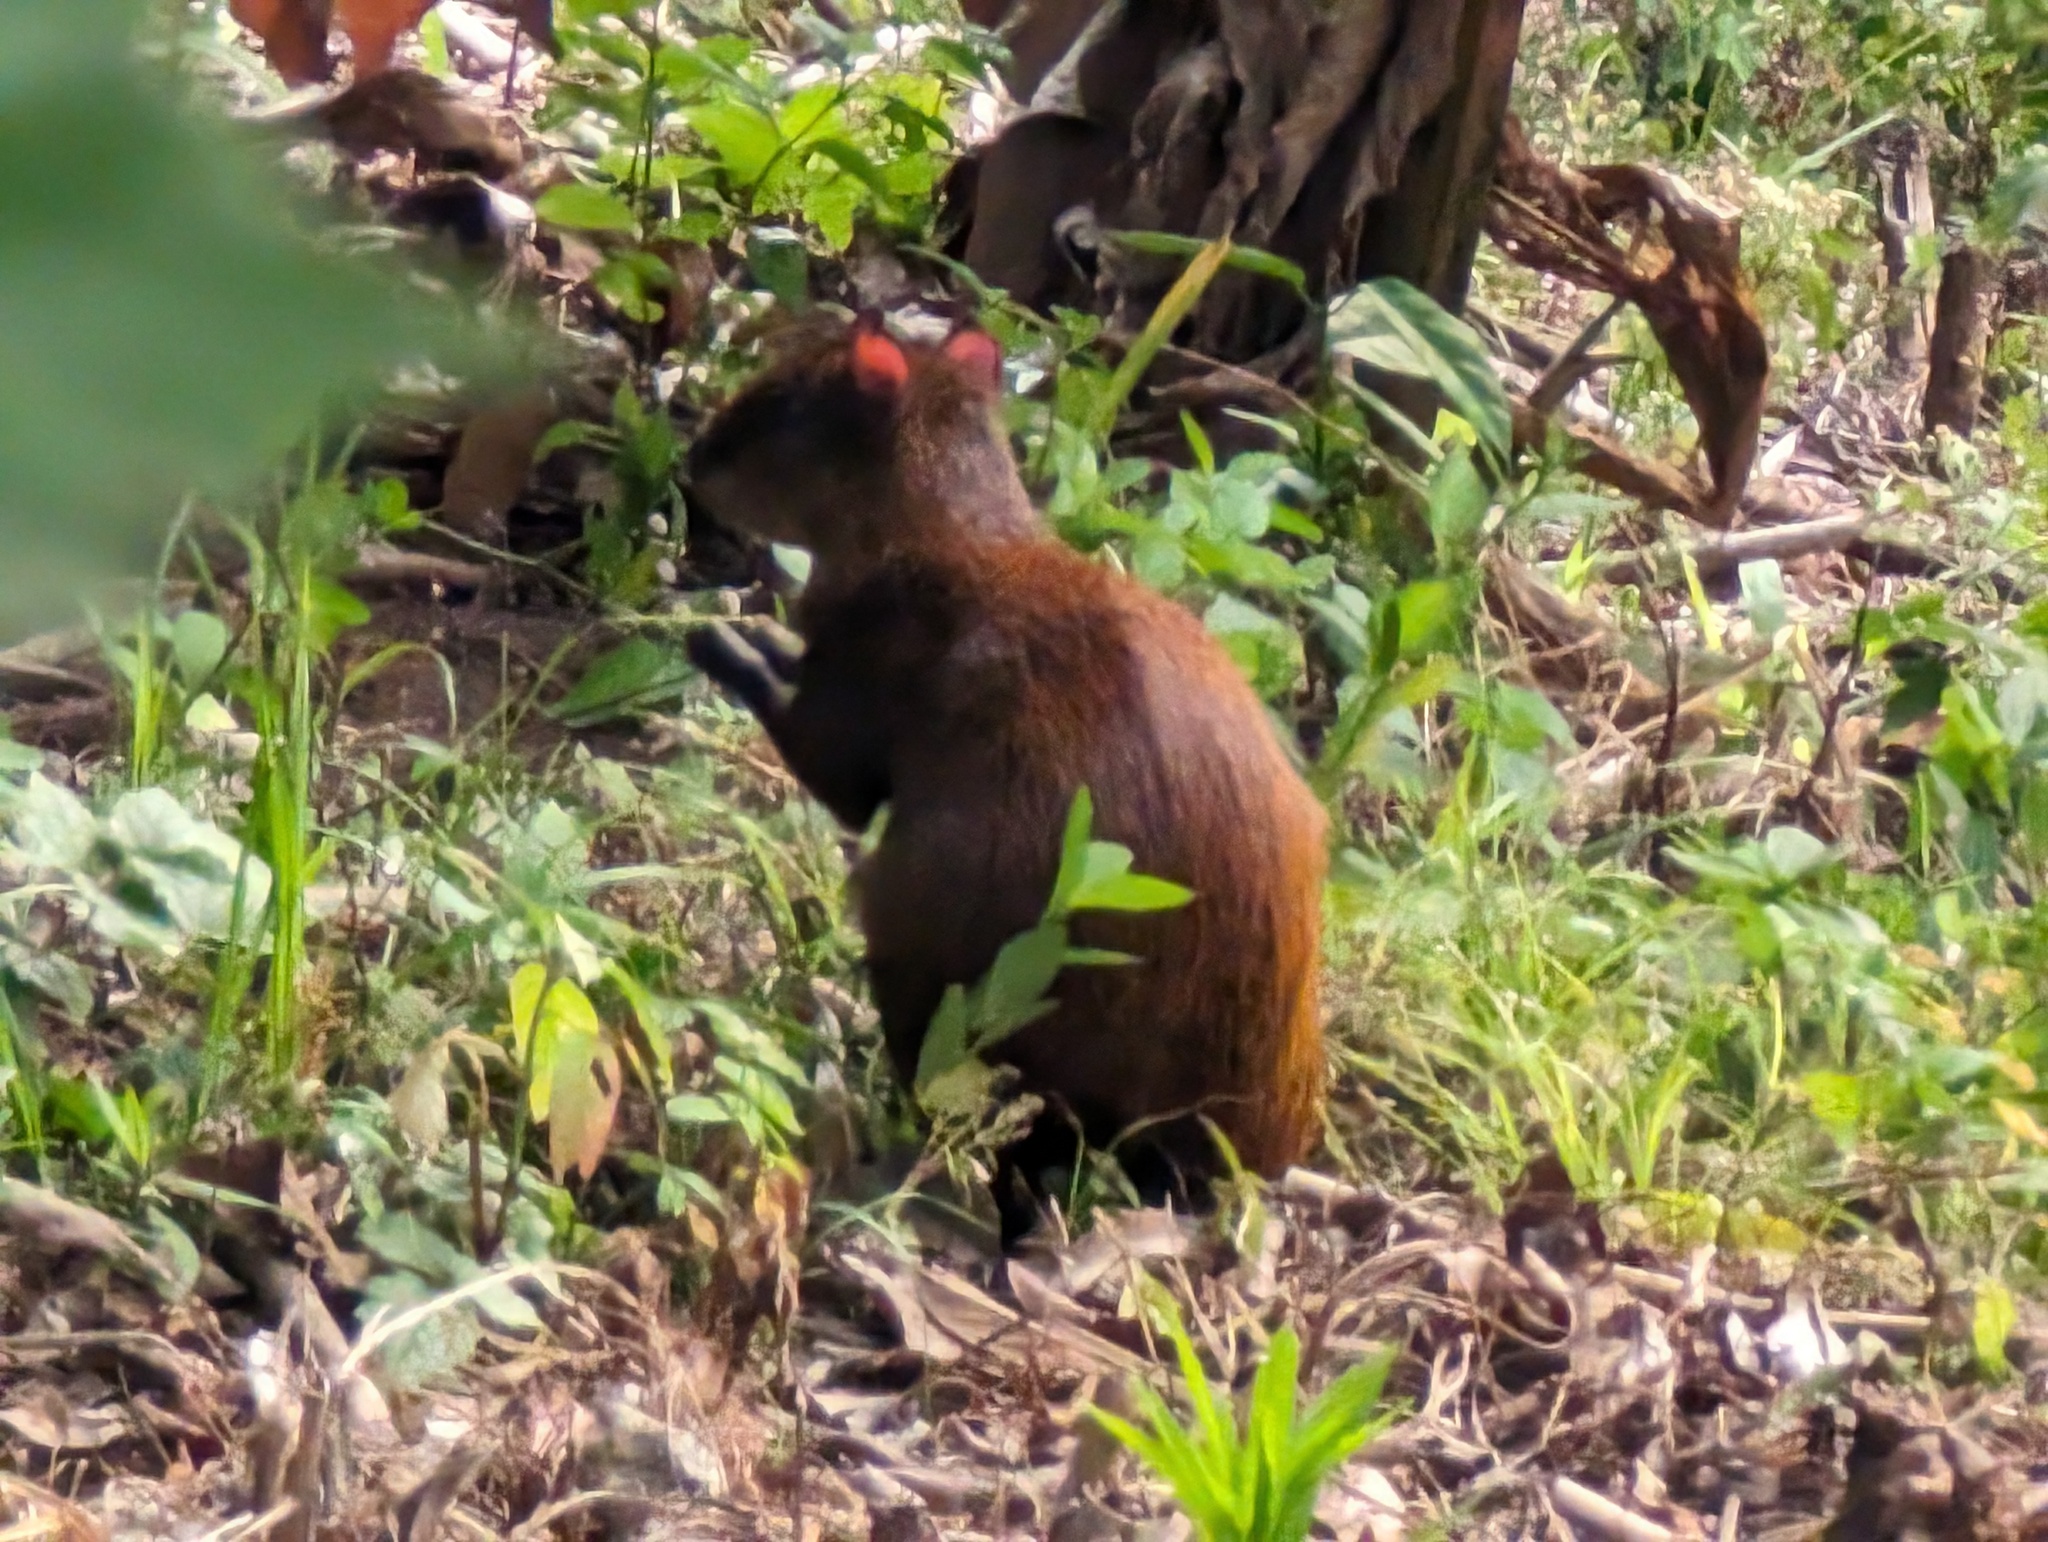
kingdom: Animalia
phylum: Chordata
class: Mammalia
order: Rodentia
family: Dasyproctidae
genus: Dasyprocta
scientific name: Dasyprocta punctata
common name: Central american agouti
